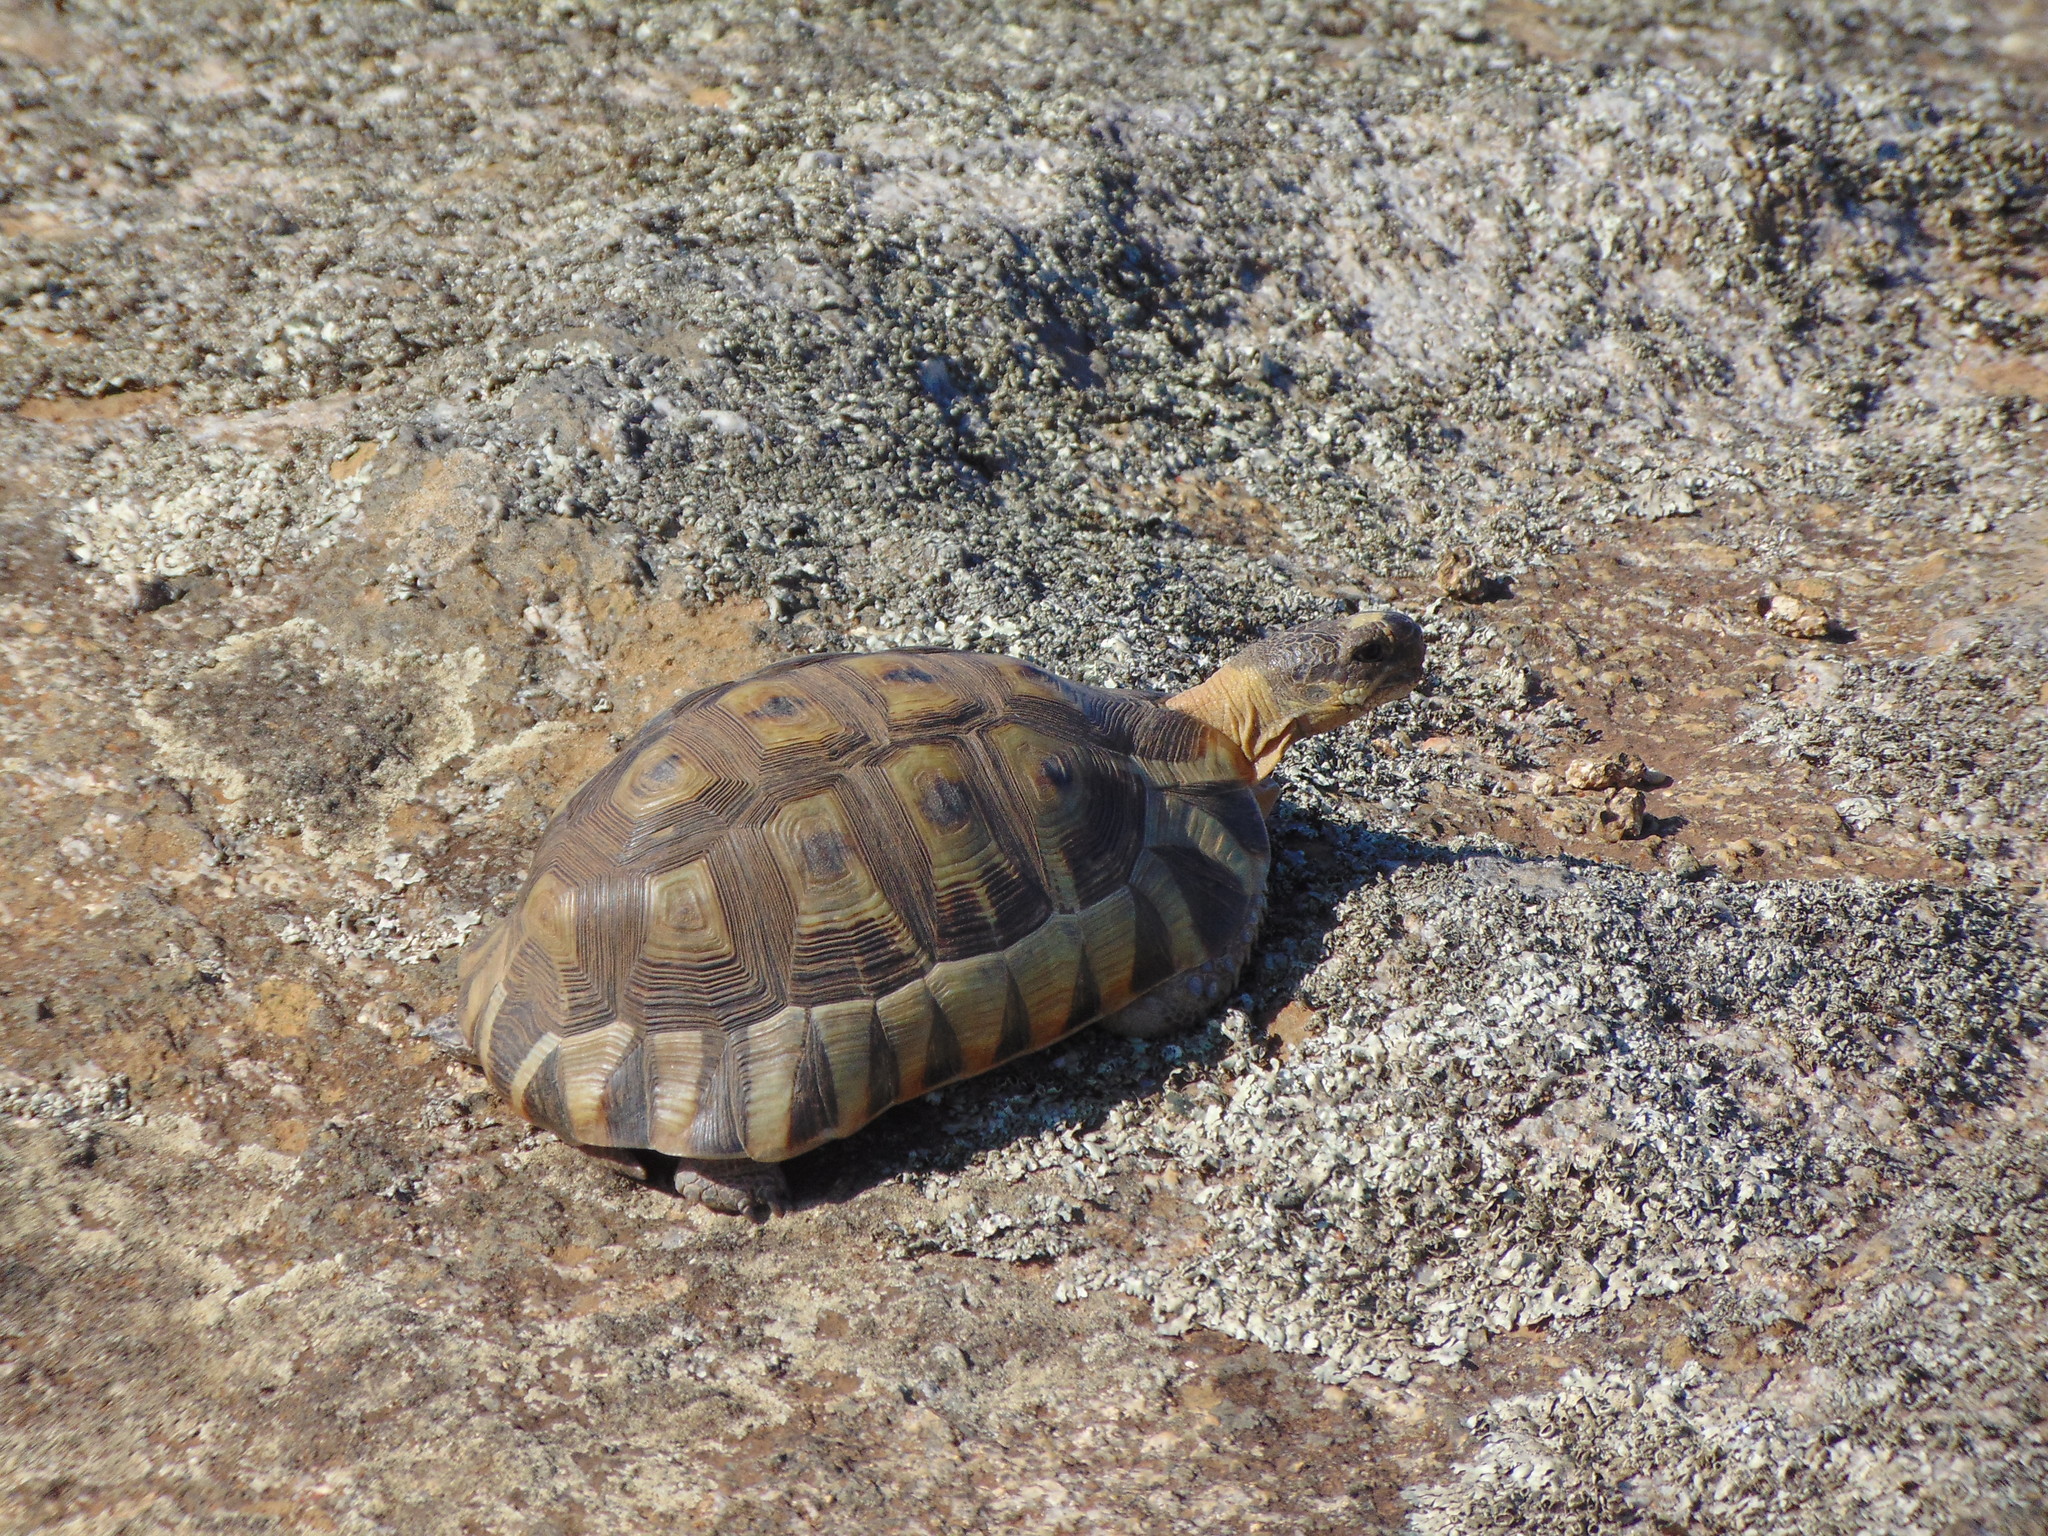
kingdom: Animalia
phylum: Chordata
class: Testudines
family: Testudinidae
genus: Chersina
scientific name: Chersina angulata
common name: South african bowsprit tortoise
